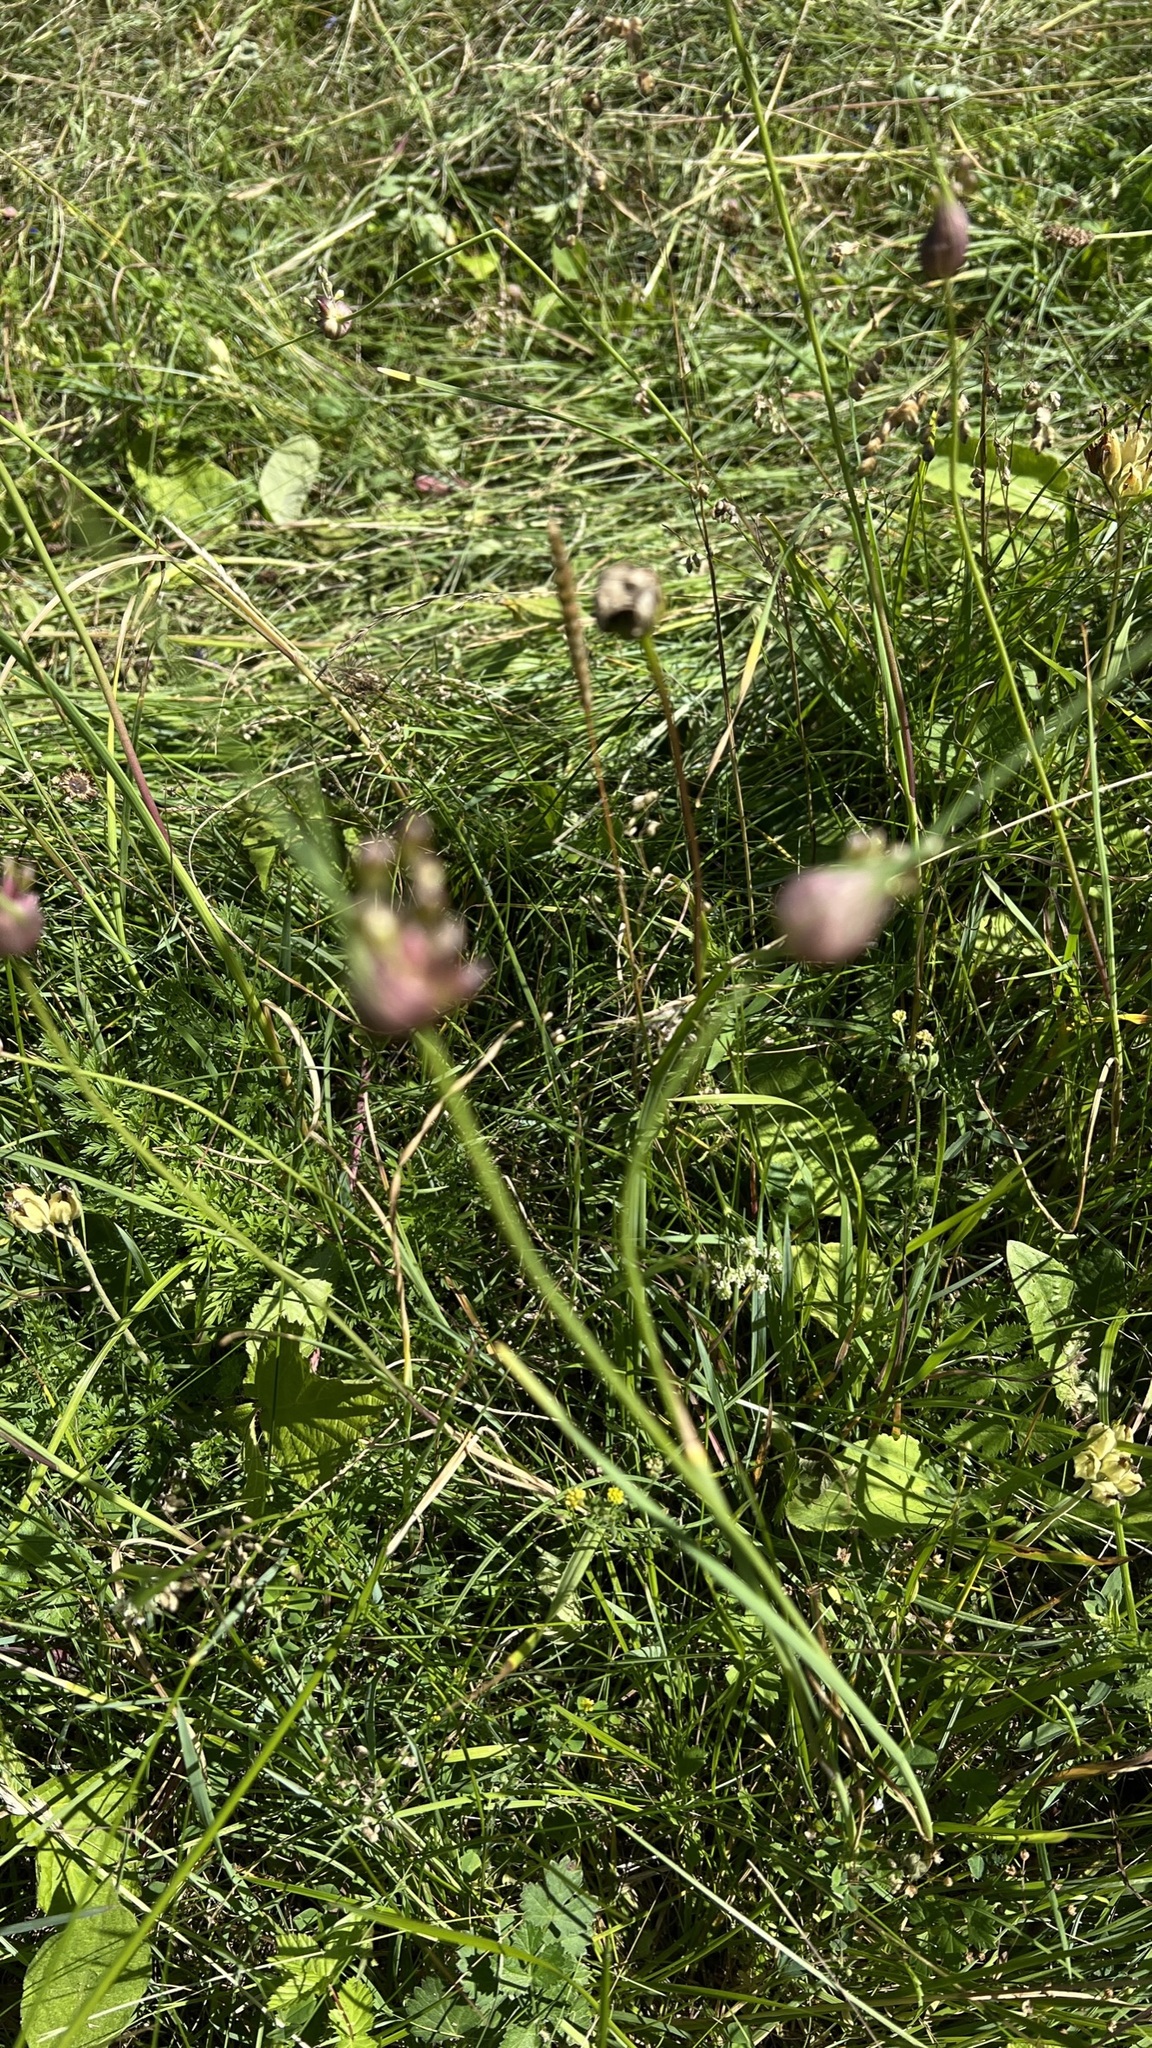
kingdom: Plantae
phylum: Tracheophyta
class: Liliopsida
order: Asparagales
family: Amaryllidaceae
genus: Allium
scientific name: Allium oleraceum
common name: Field garlic
